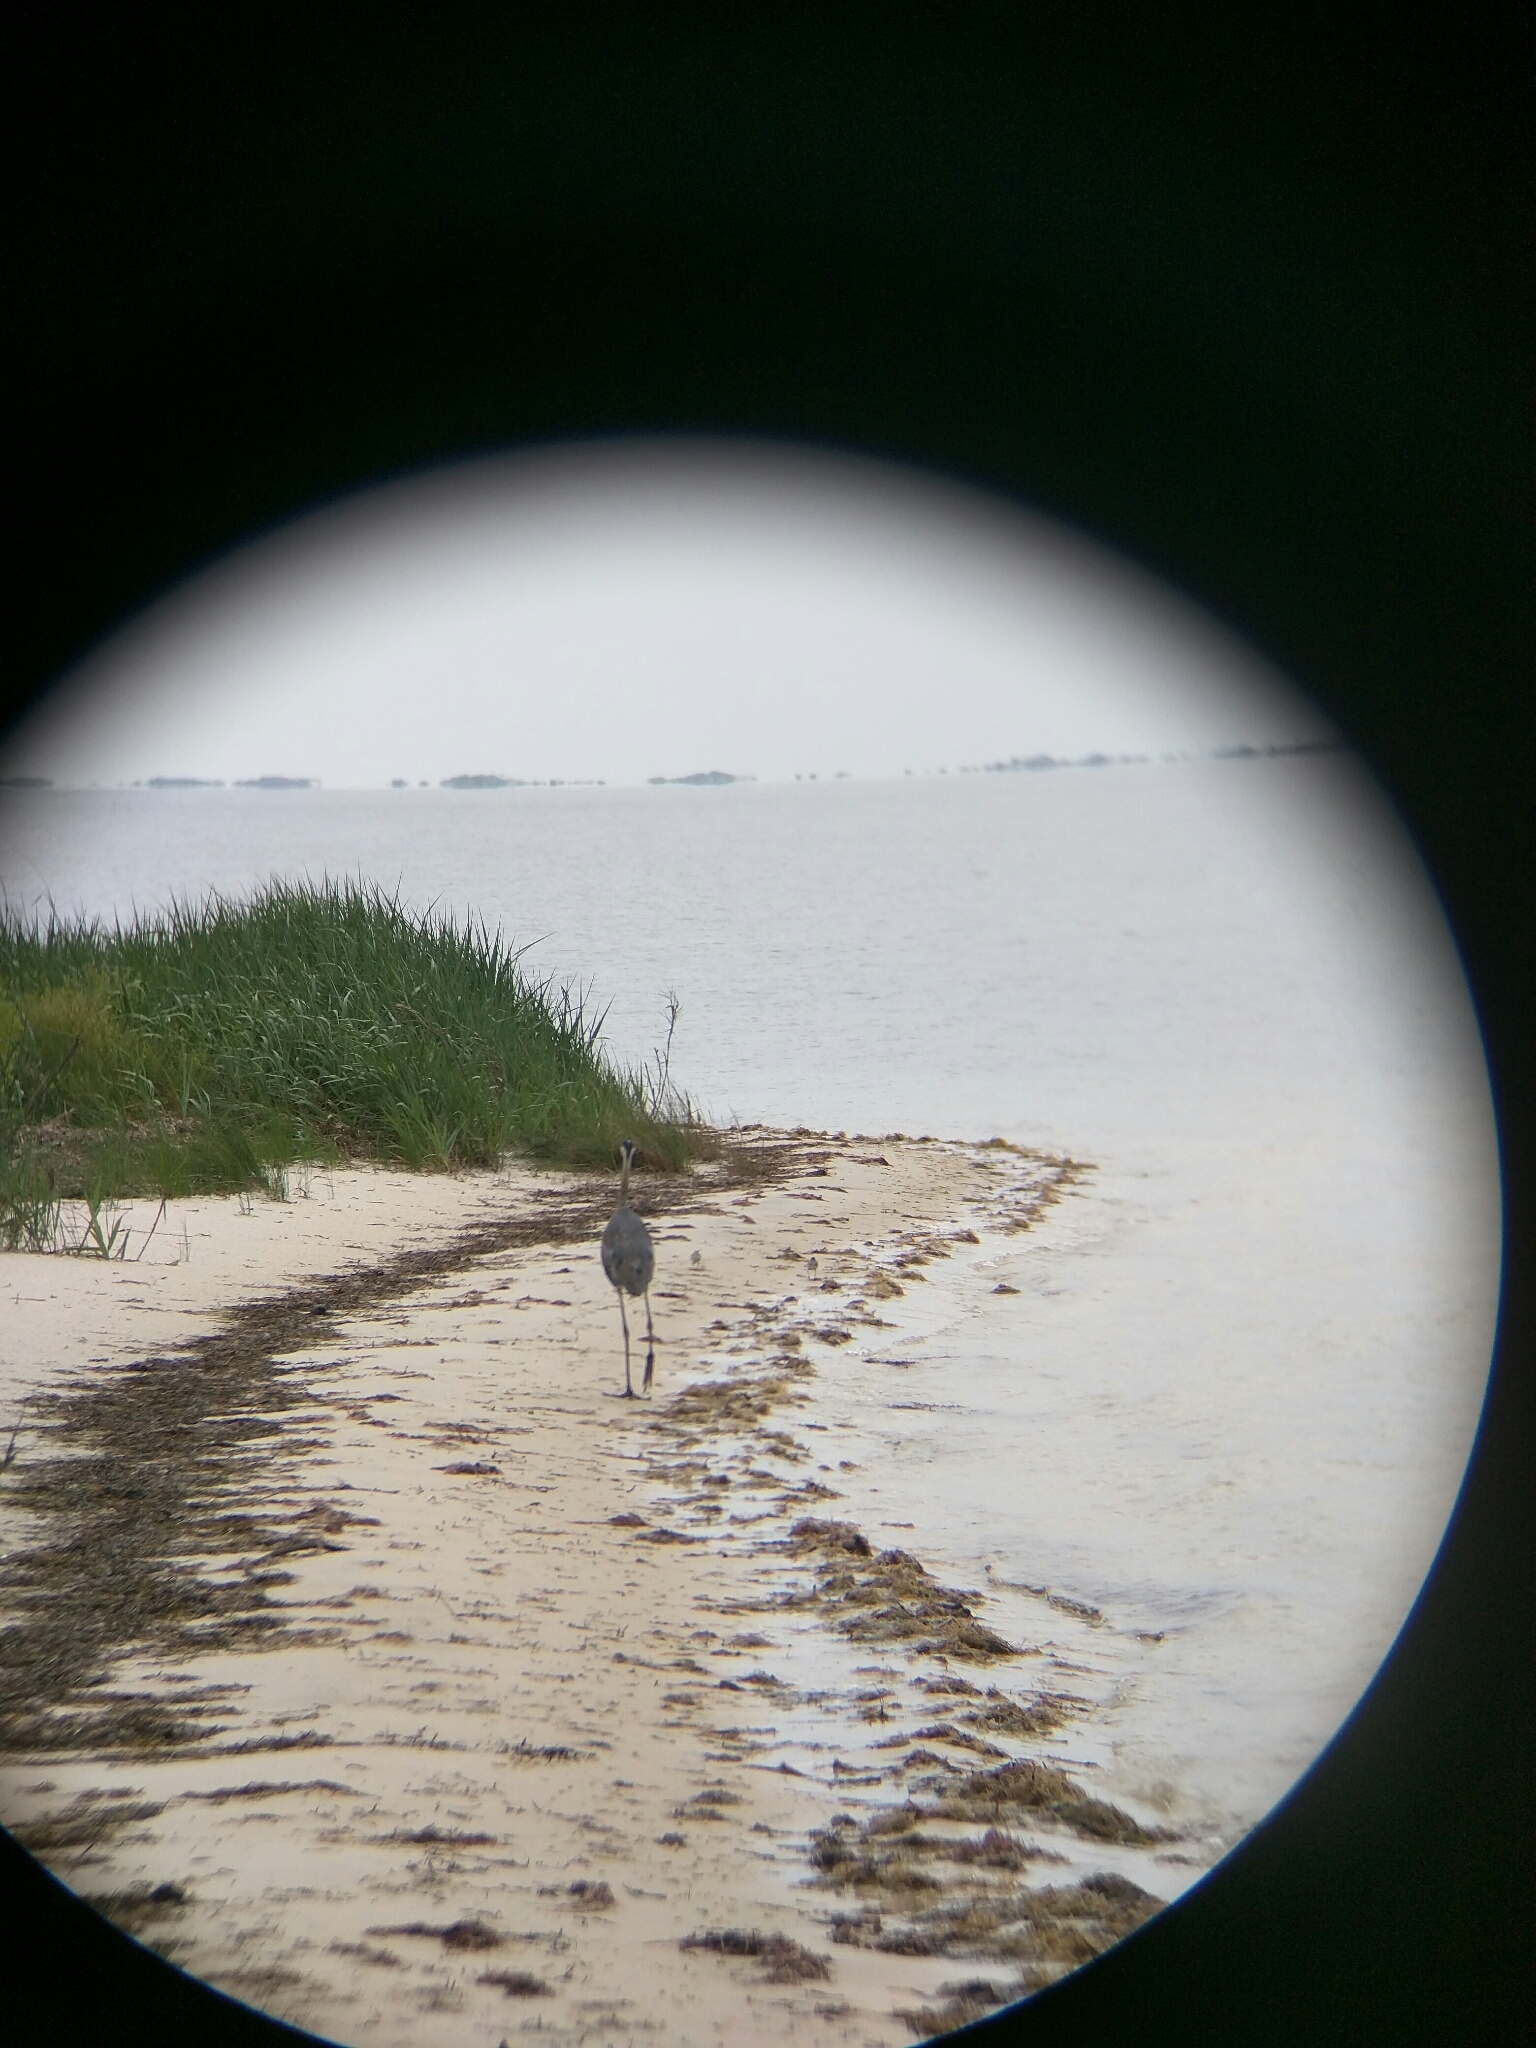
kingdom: Animalia
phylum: Chordata
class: Aves
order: Pelecaniformes
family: Ardeidae
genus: Ardea
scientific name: Ardea herodias
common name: Great blue heron
